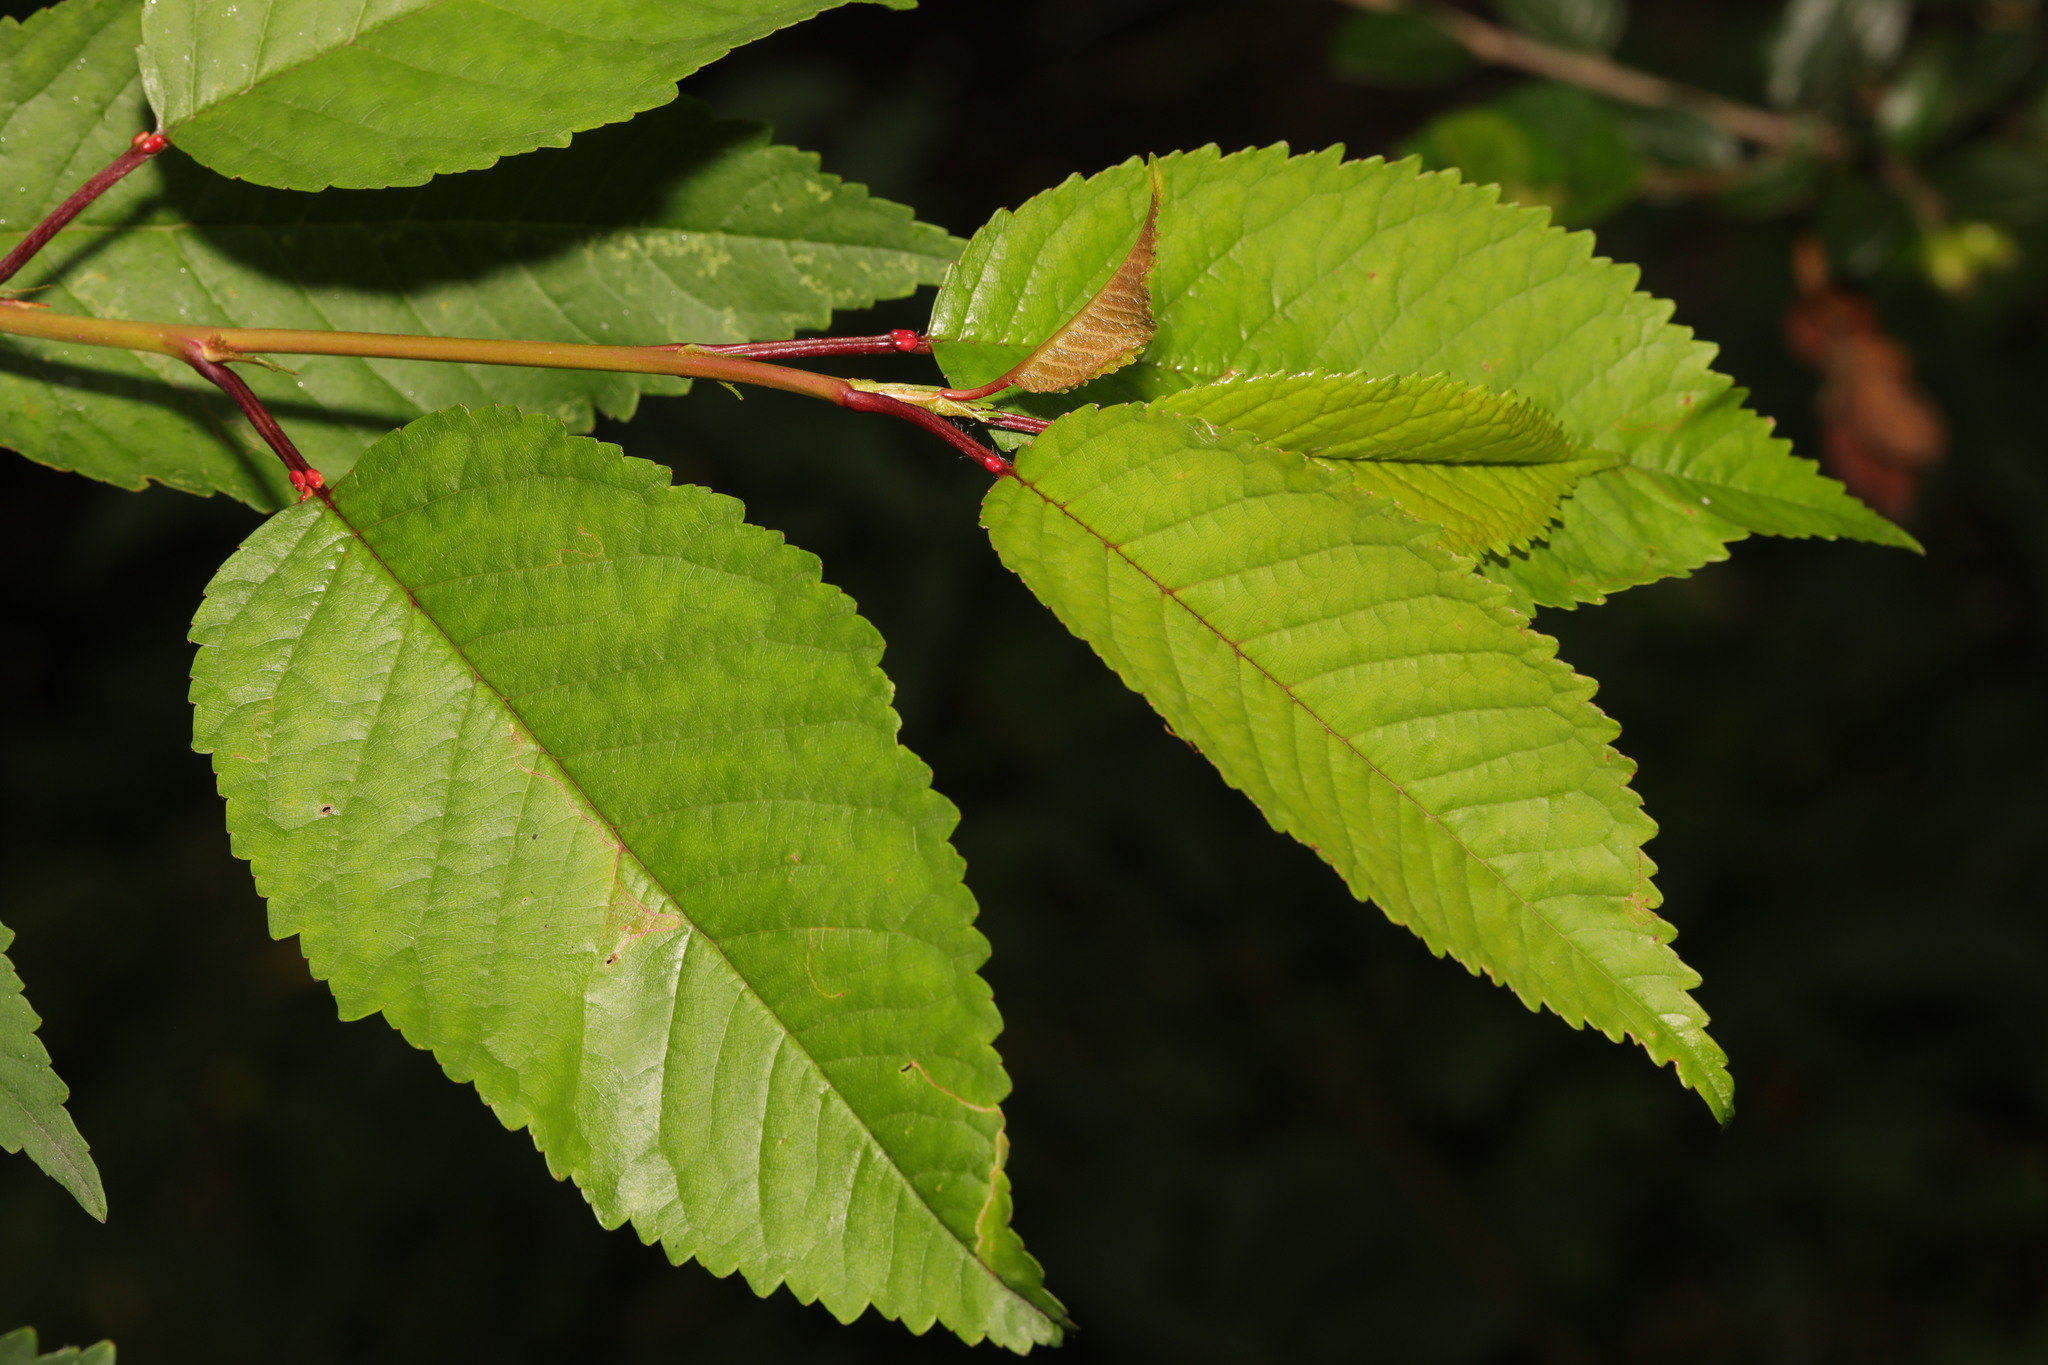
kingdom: Plantae
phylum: Tracheophyta
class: Magnoliopsida
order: Rosales
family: Rosaceae
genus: Prunus
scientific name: Prunus avium
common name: Sweet cherry
